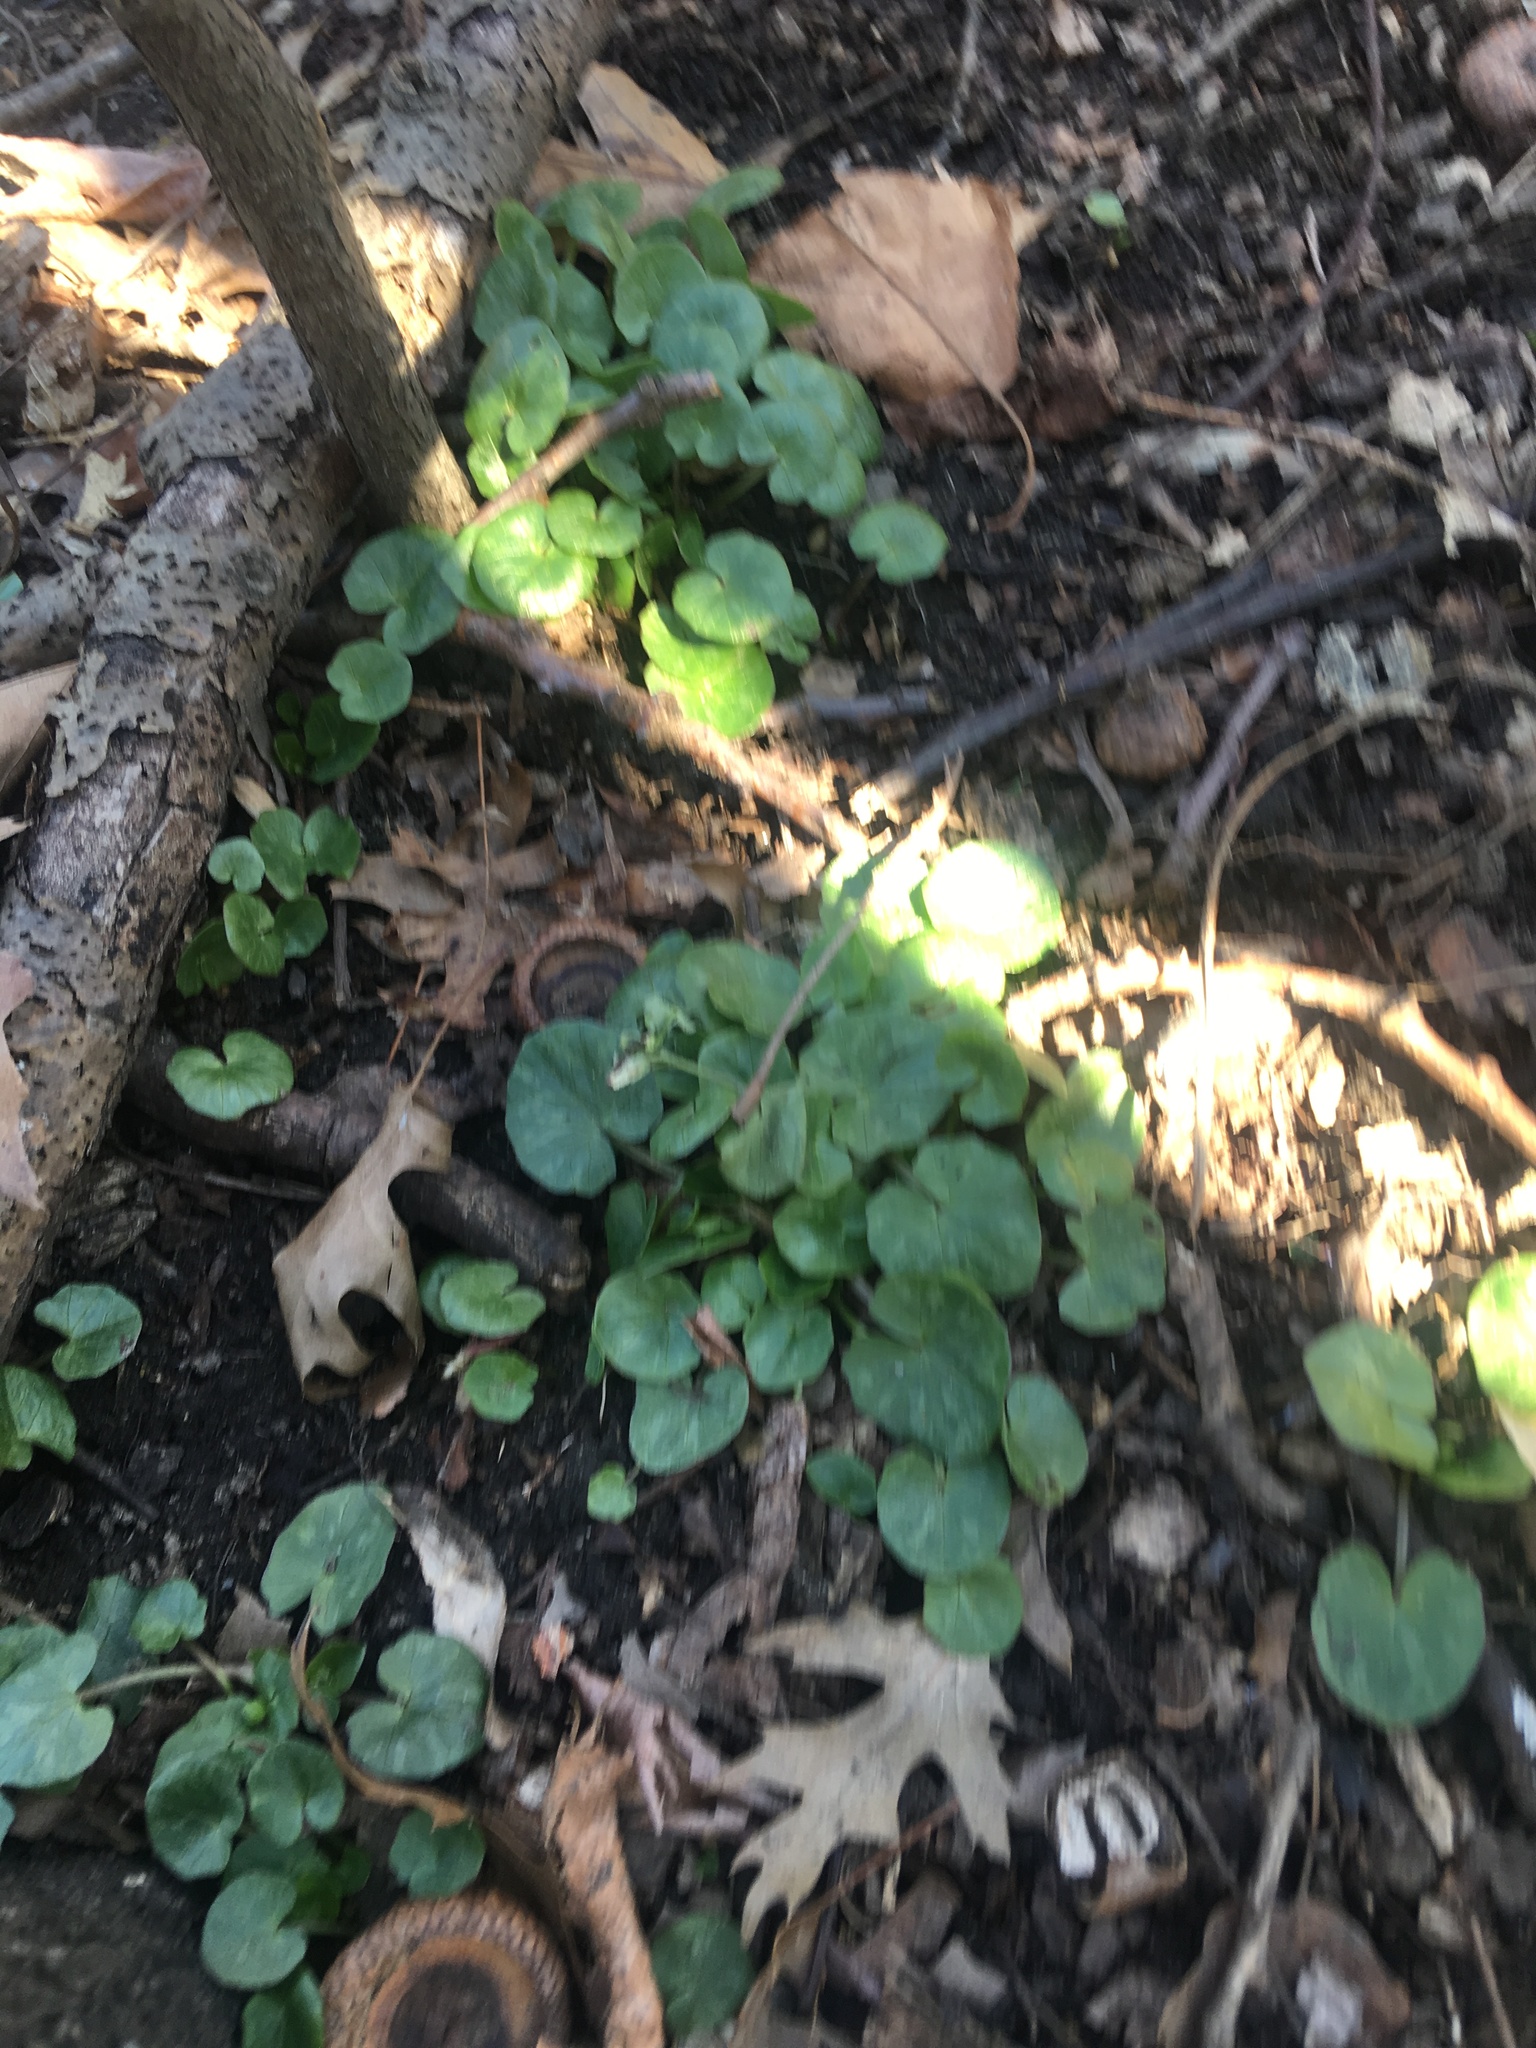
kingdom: Plantae
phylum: Tracheophyta
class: Magnoliopsida
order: Ranunculales
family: Ranunculaceae
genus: Ficaria
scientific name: Ficaria verna
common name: Lesser celandine
